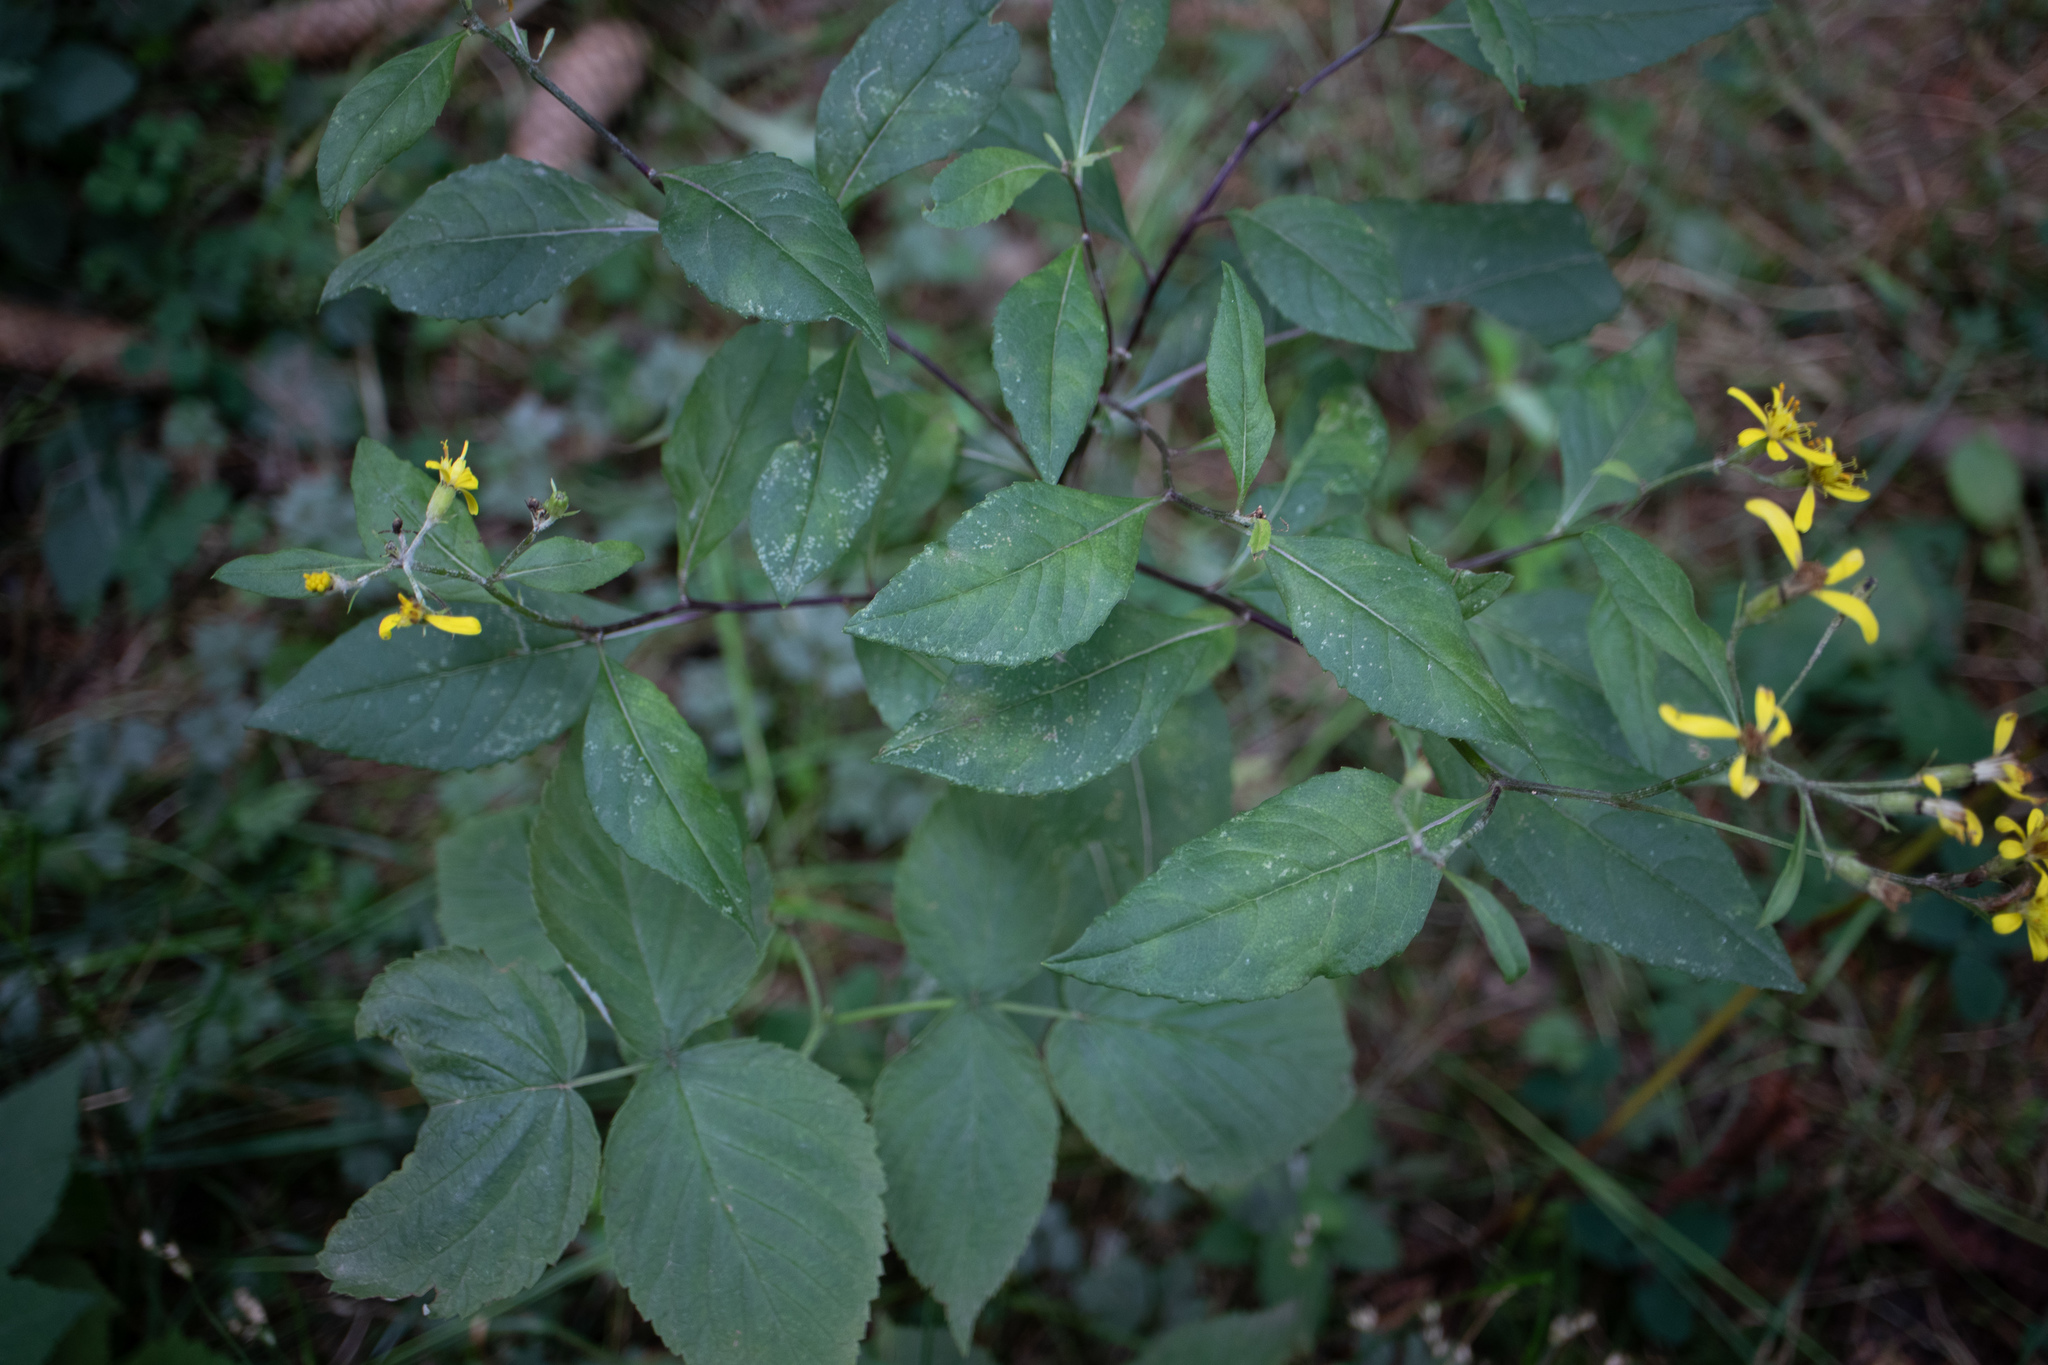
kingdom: Plantae
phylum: Tracheophyta
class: Magnoliopsida
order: Asterales
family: Asteraceae
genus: Senecio
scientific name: Senecio ovatus
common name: Wood ragwort
